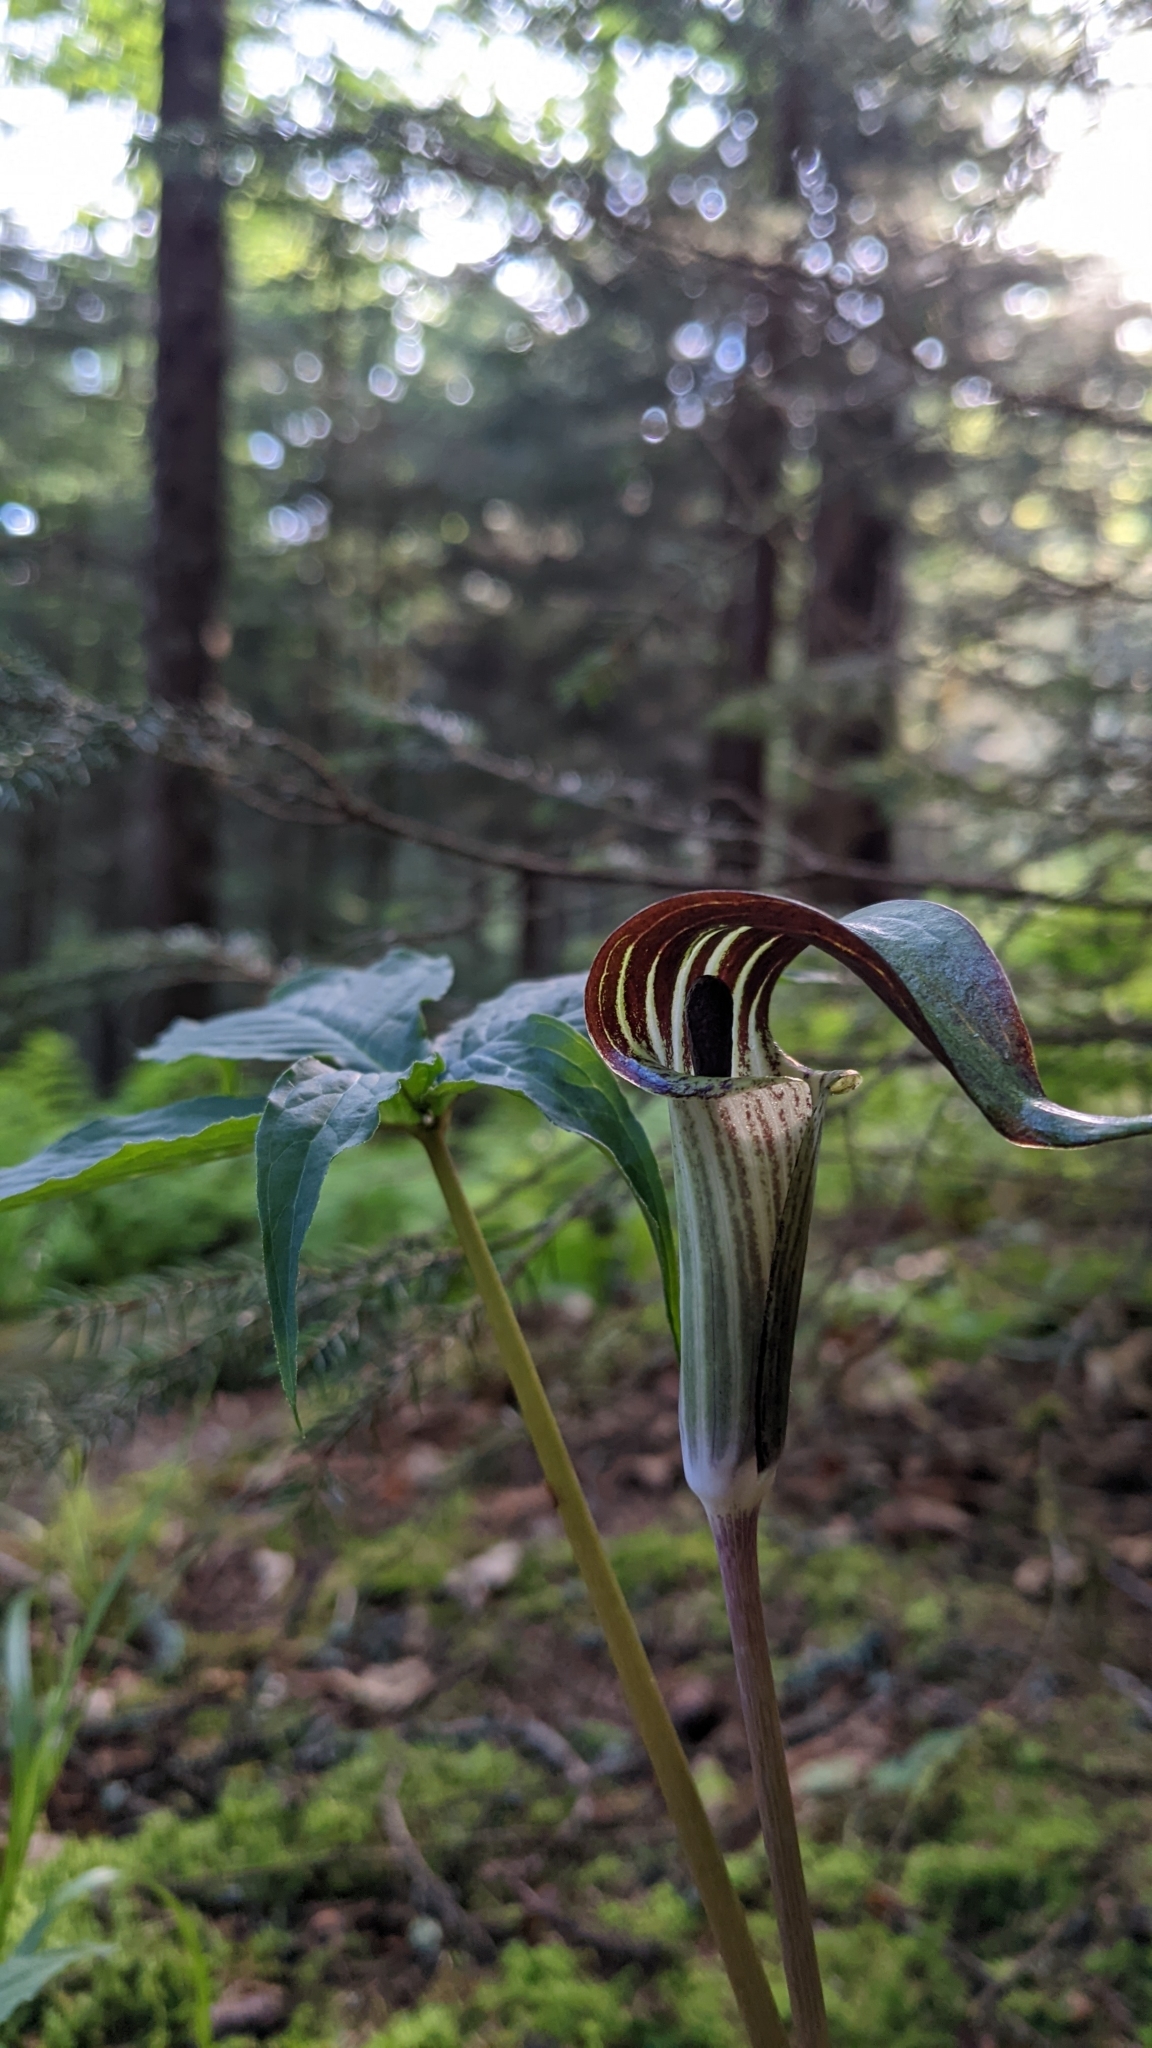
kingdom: Plantae
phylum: Tracheophyta
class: Liliopsida
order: Alismatales
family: Araceae
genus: Arisaema
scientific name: Arisaema triphyllum
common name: Jack-in-the-pulpit
